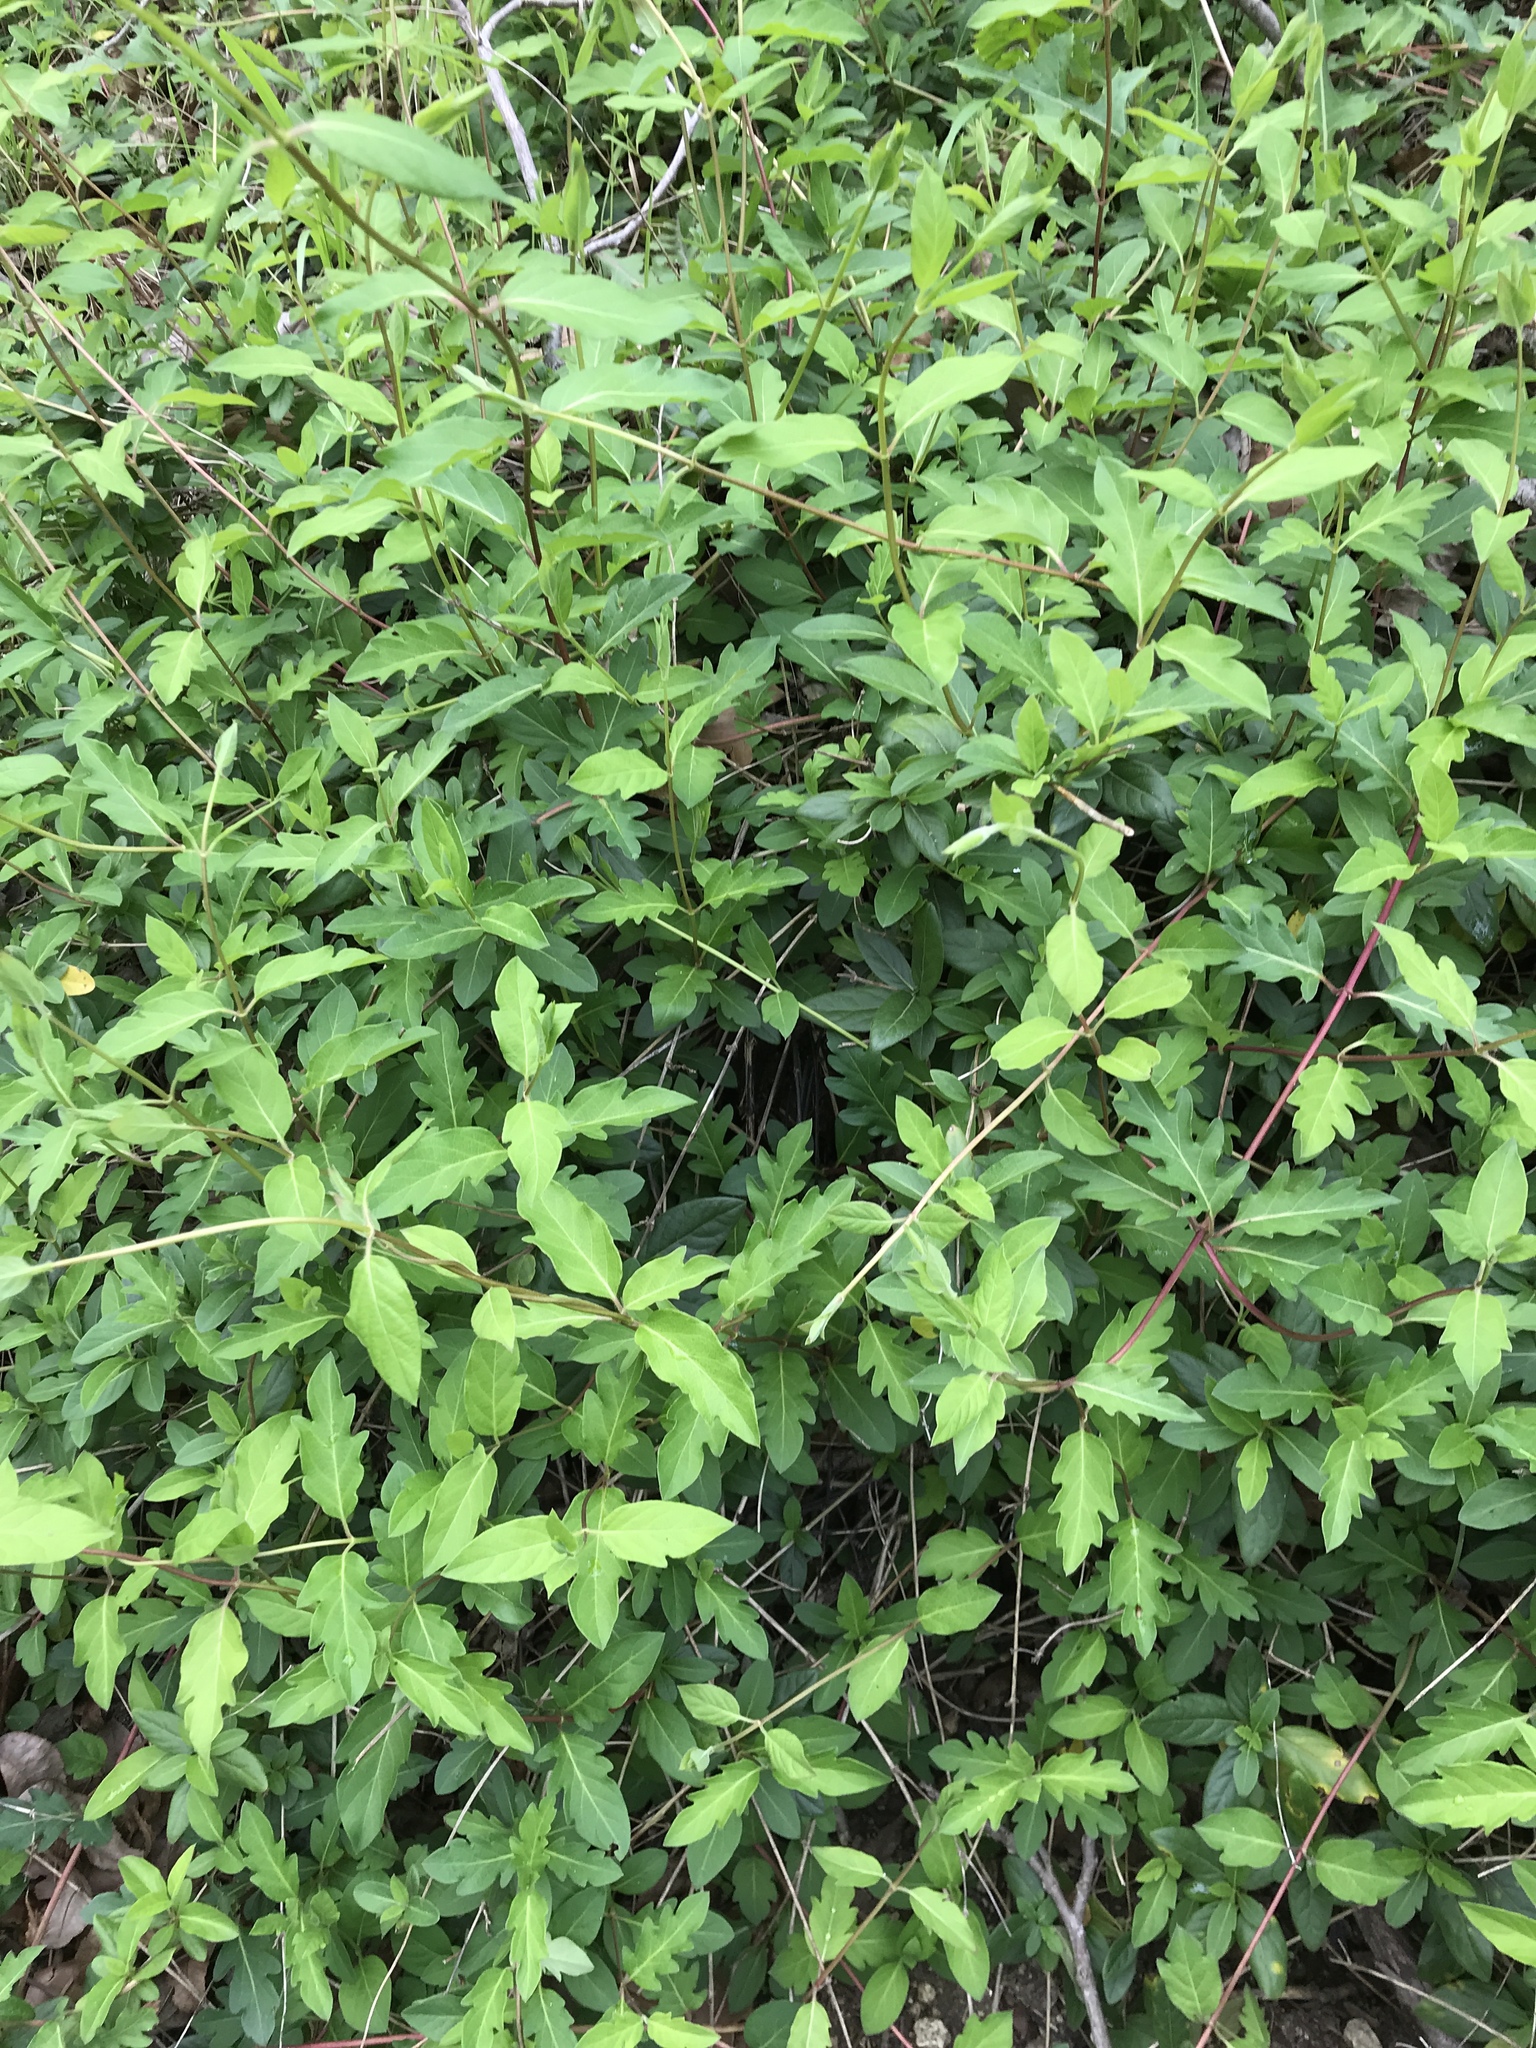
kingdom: Plantae
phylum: Tracheophyta
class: Magnoliopsida
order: Dipsacales
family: Caprifoliaceae
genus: Lonicera
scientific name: Lonicera japonica
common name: Japanese honeysuckle
